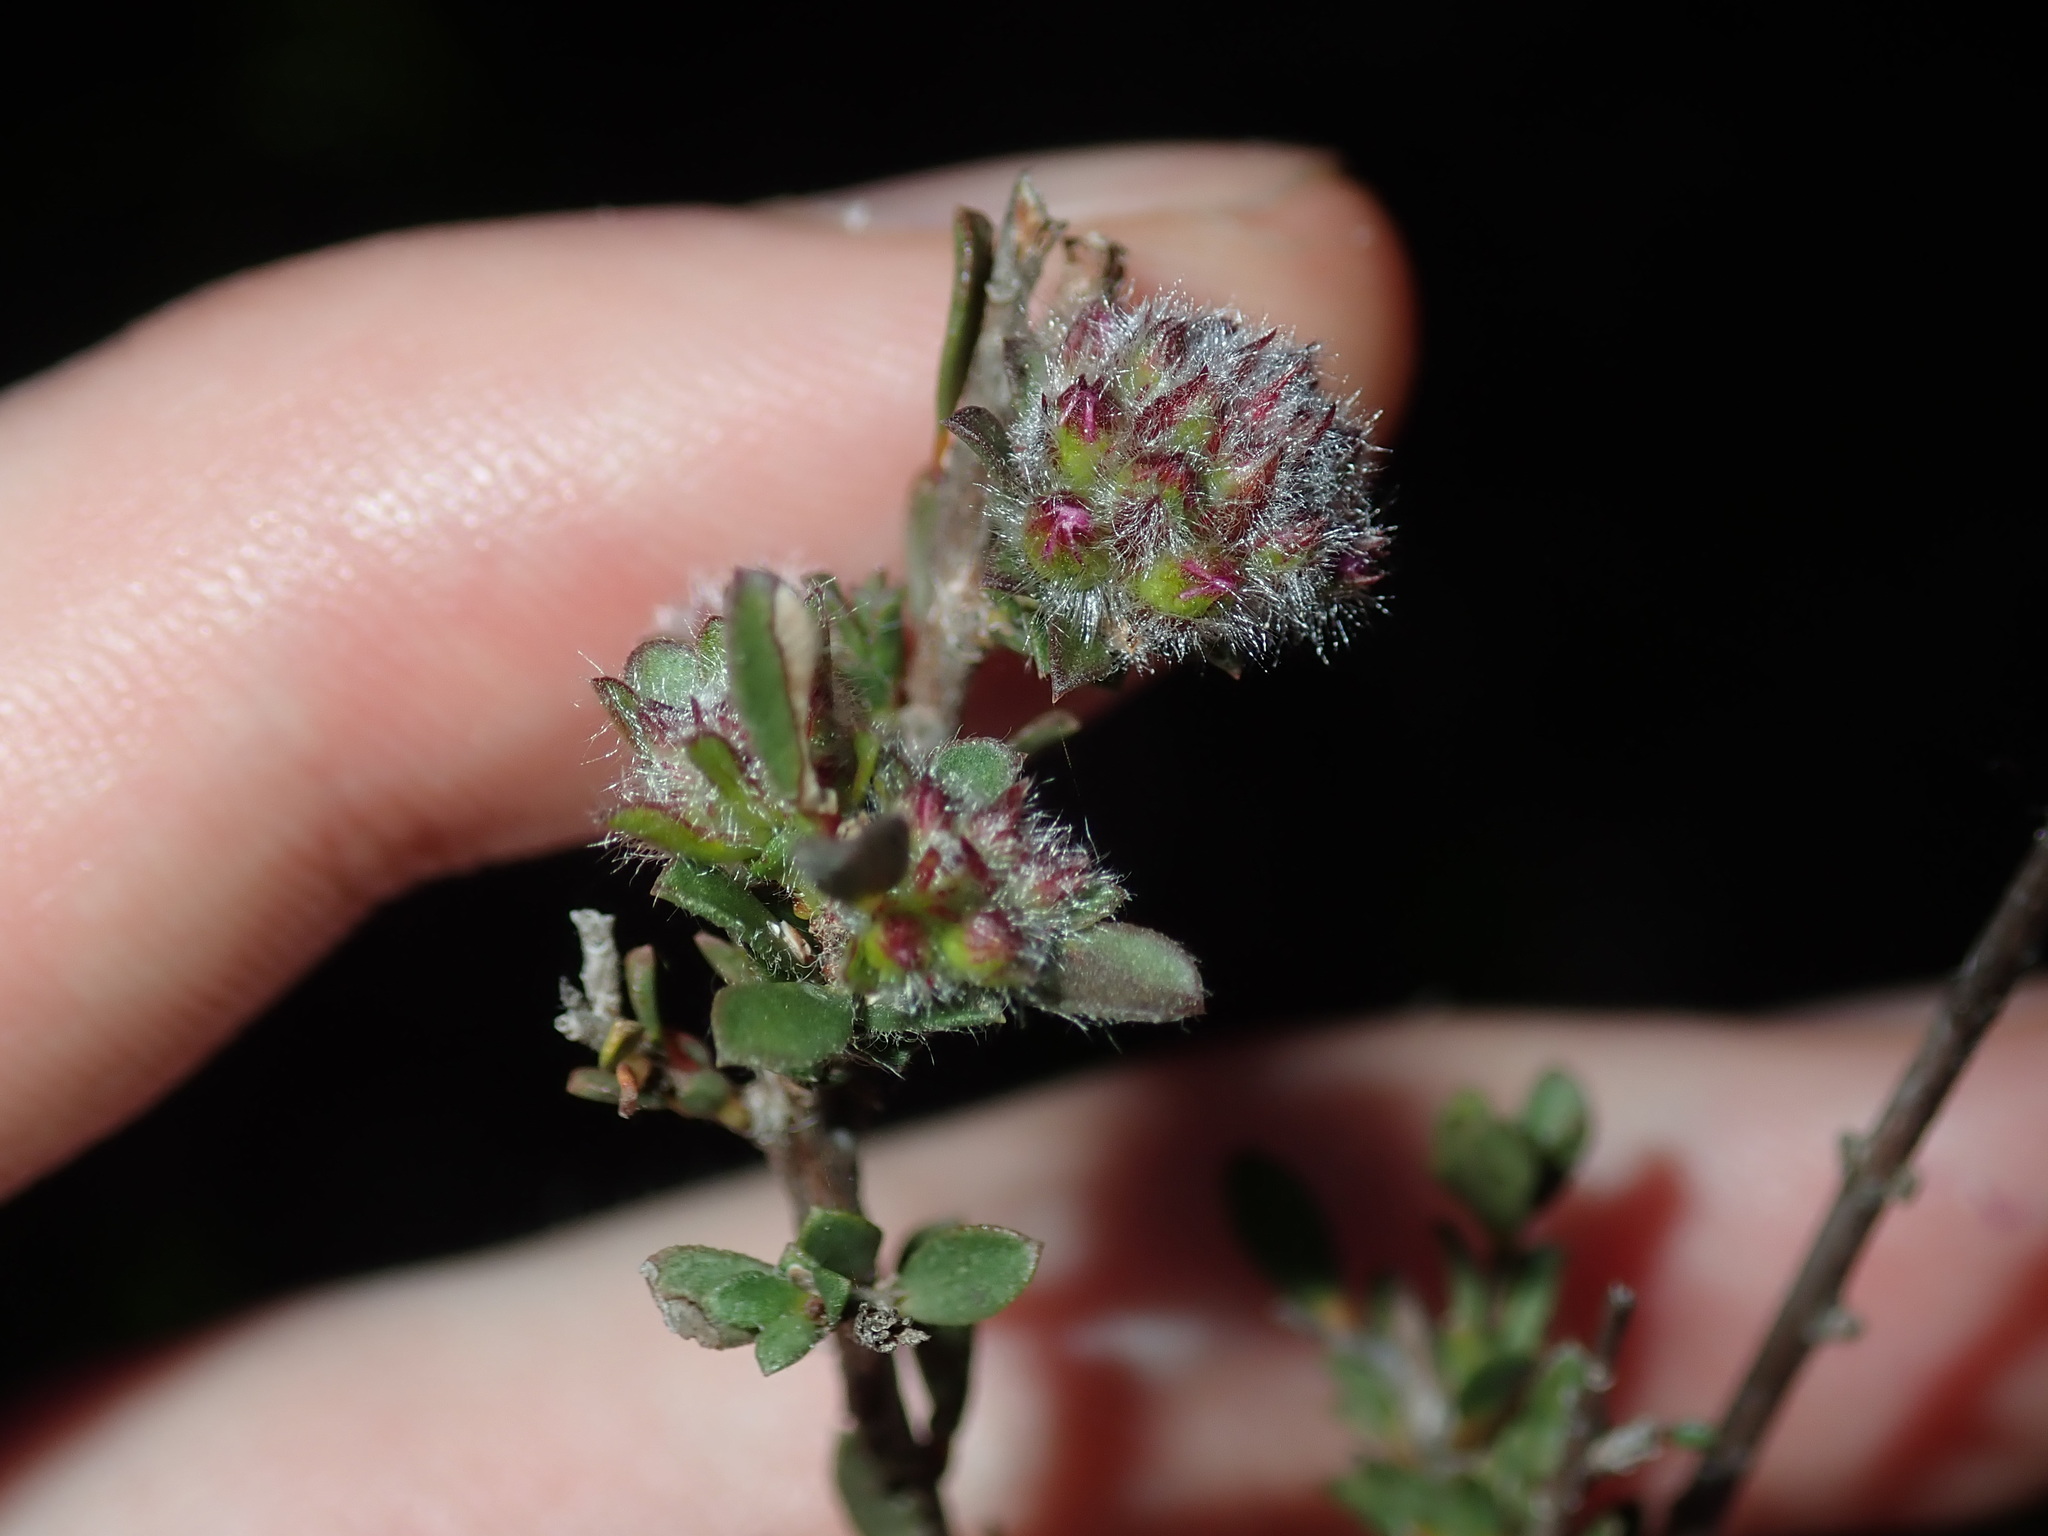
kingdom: Plantae
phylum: Tracheophyta
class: Magnoliopsida
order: Myrtales
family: Myrtaceae
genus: Kunzea
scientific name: Kunzea capitata
